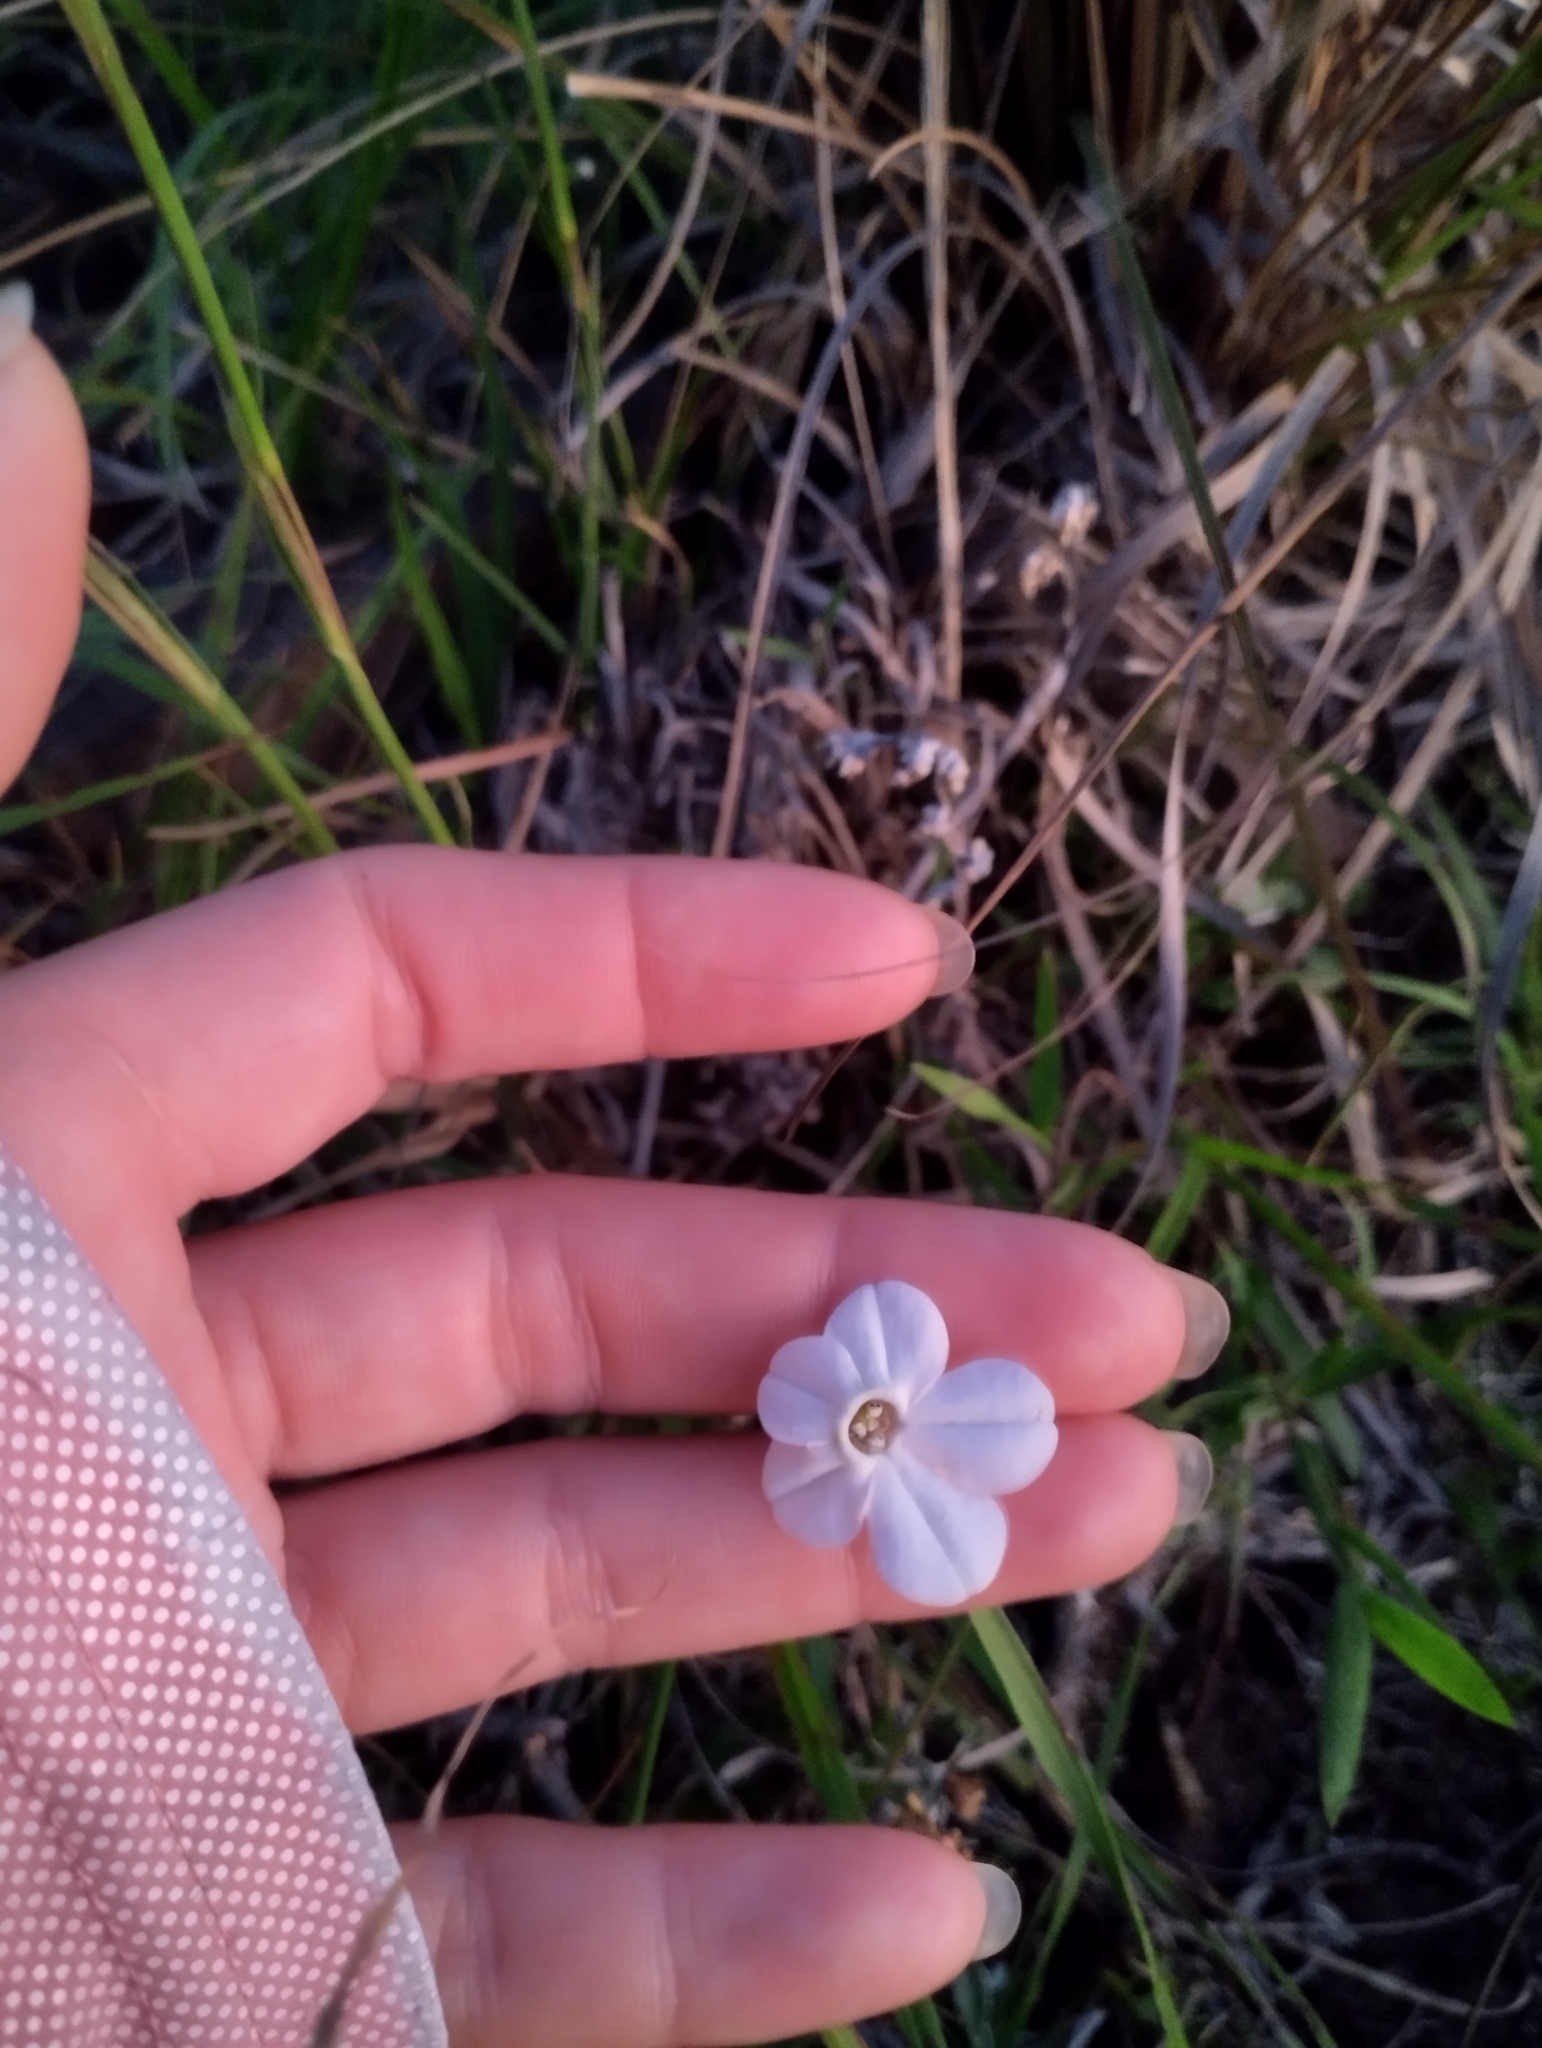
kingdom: Plantae
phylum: Tracheophyta
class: Magnoliopsida
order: Solanales
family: Solanaceae
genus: Nicotiana
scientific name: Nicotiana bonariensis
